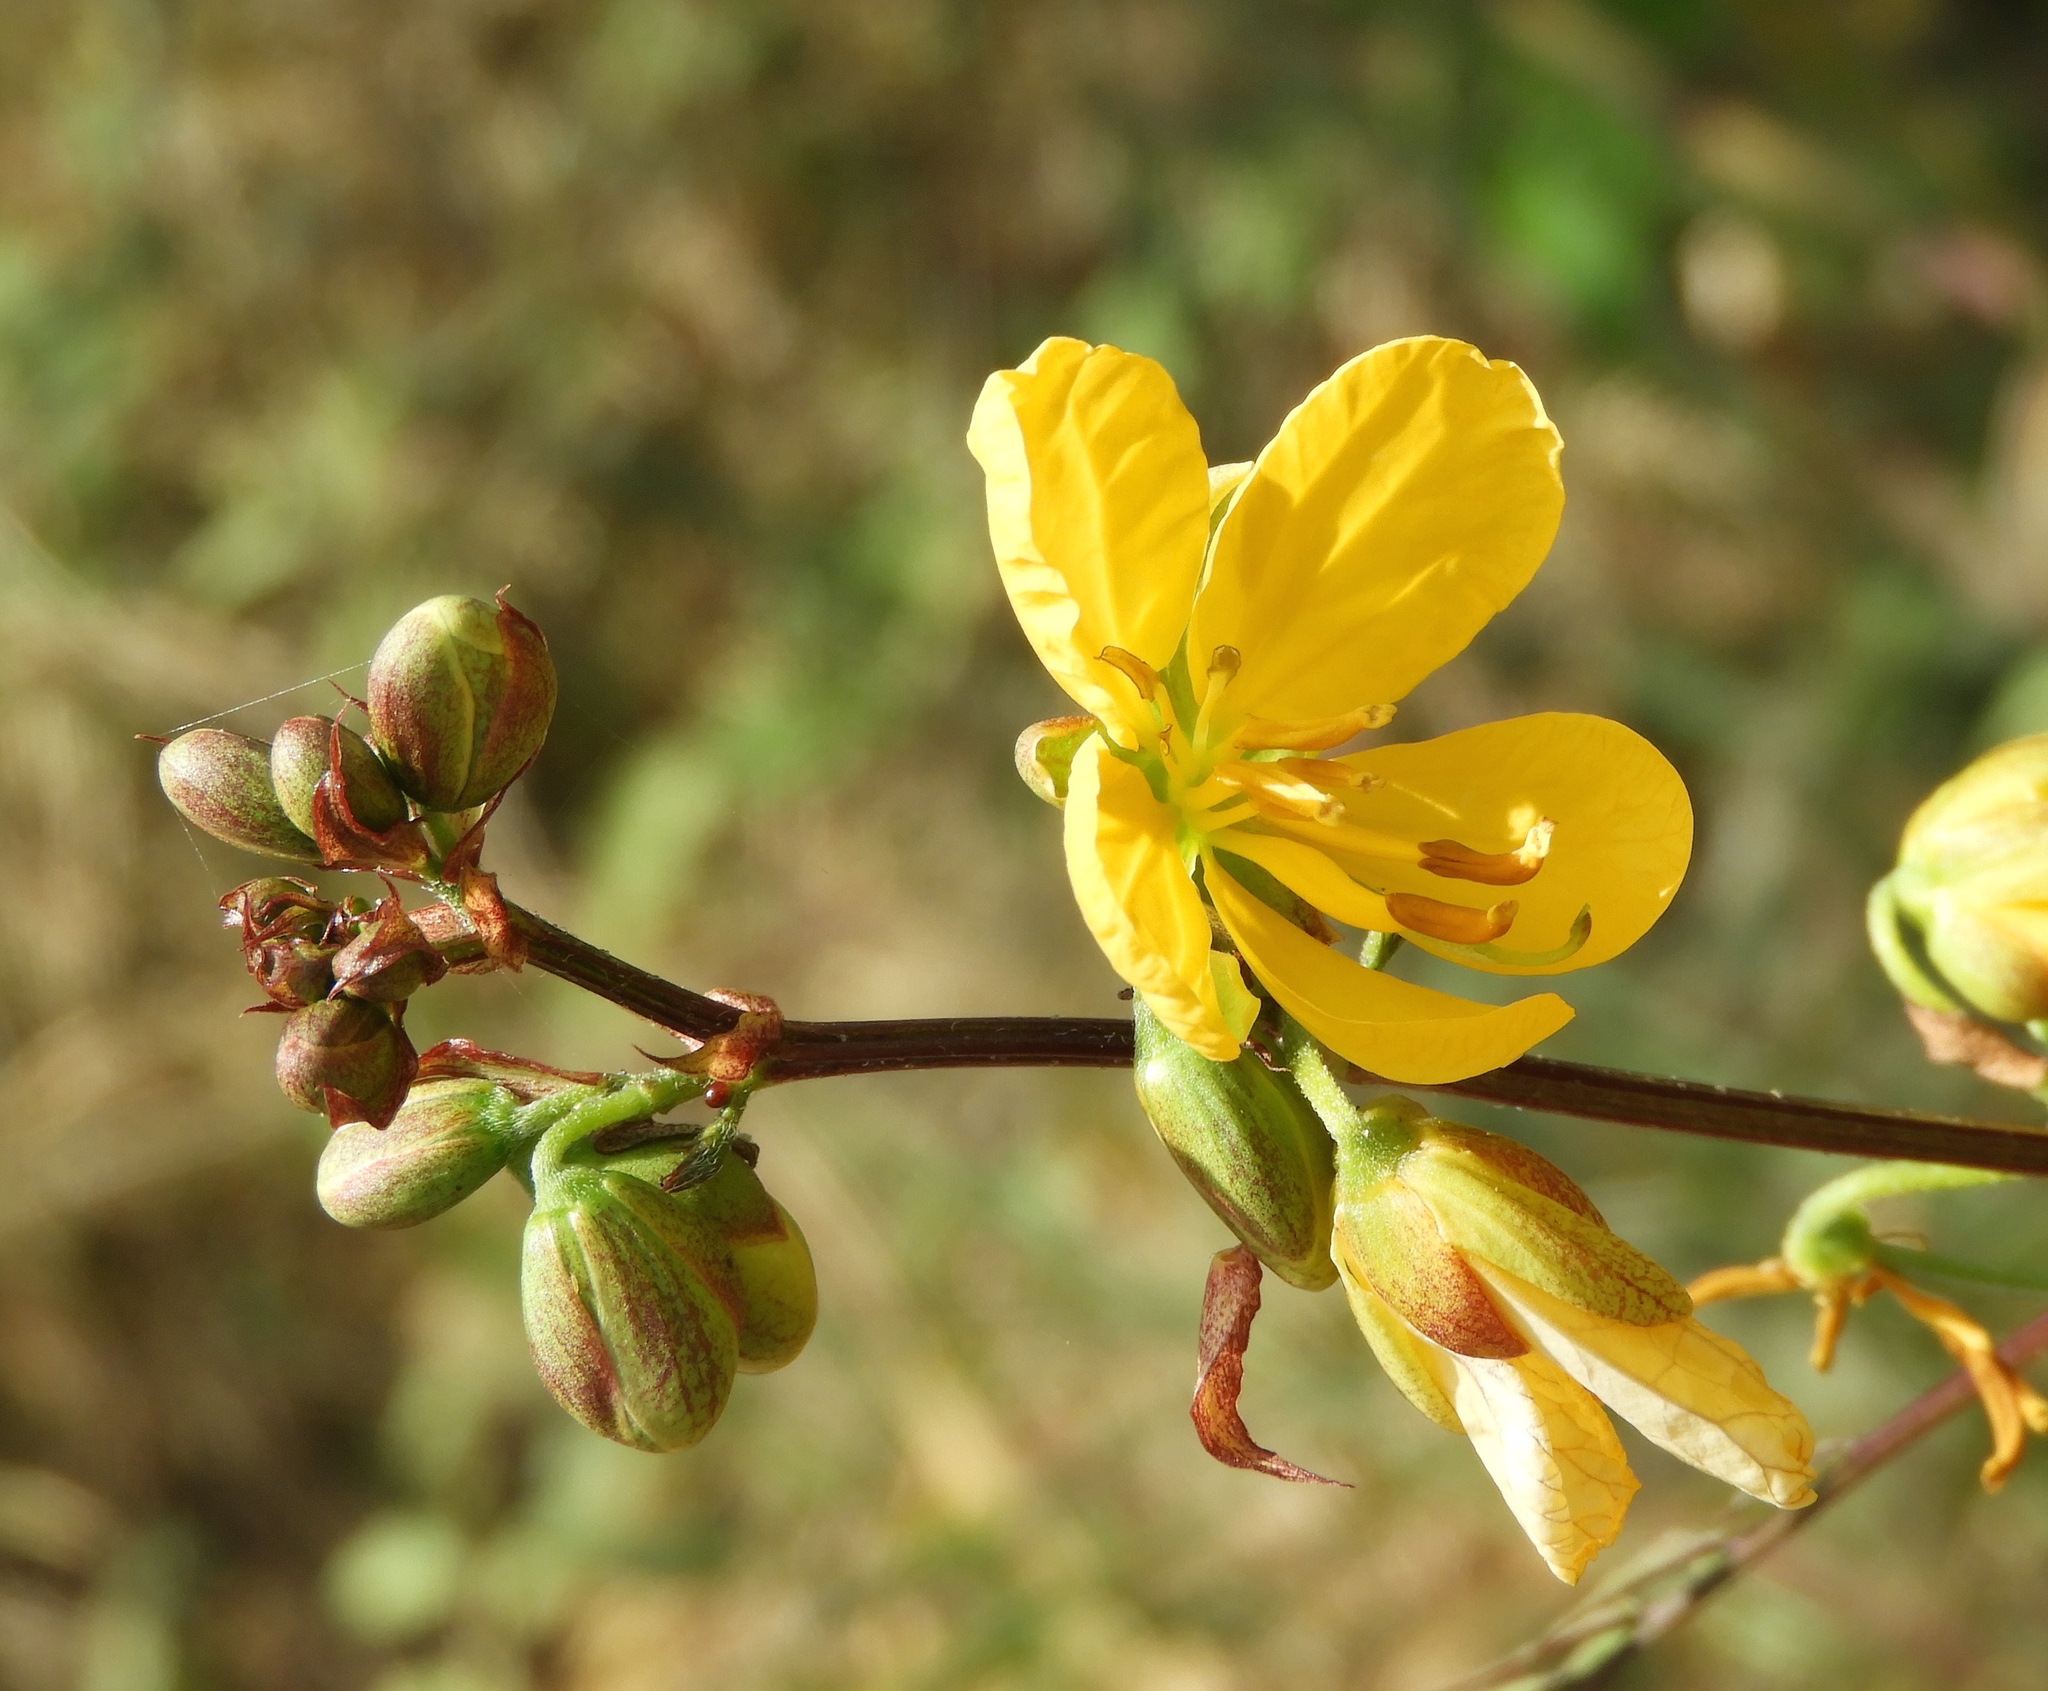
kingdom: Plantae
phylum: Tracheophyta
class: Magnoliopsida
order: Fabales
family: Fabaceae
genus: Senna
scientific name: Senna occidentalis
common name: Septicweed
